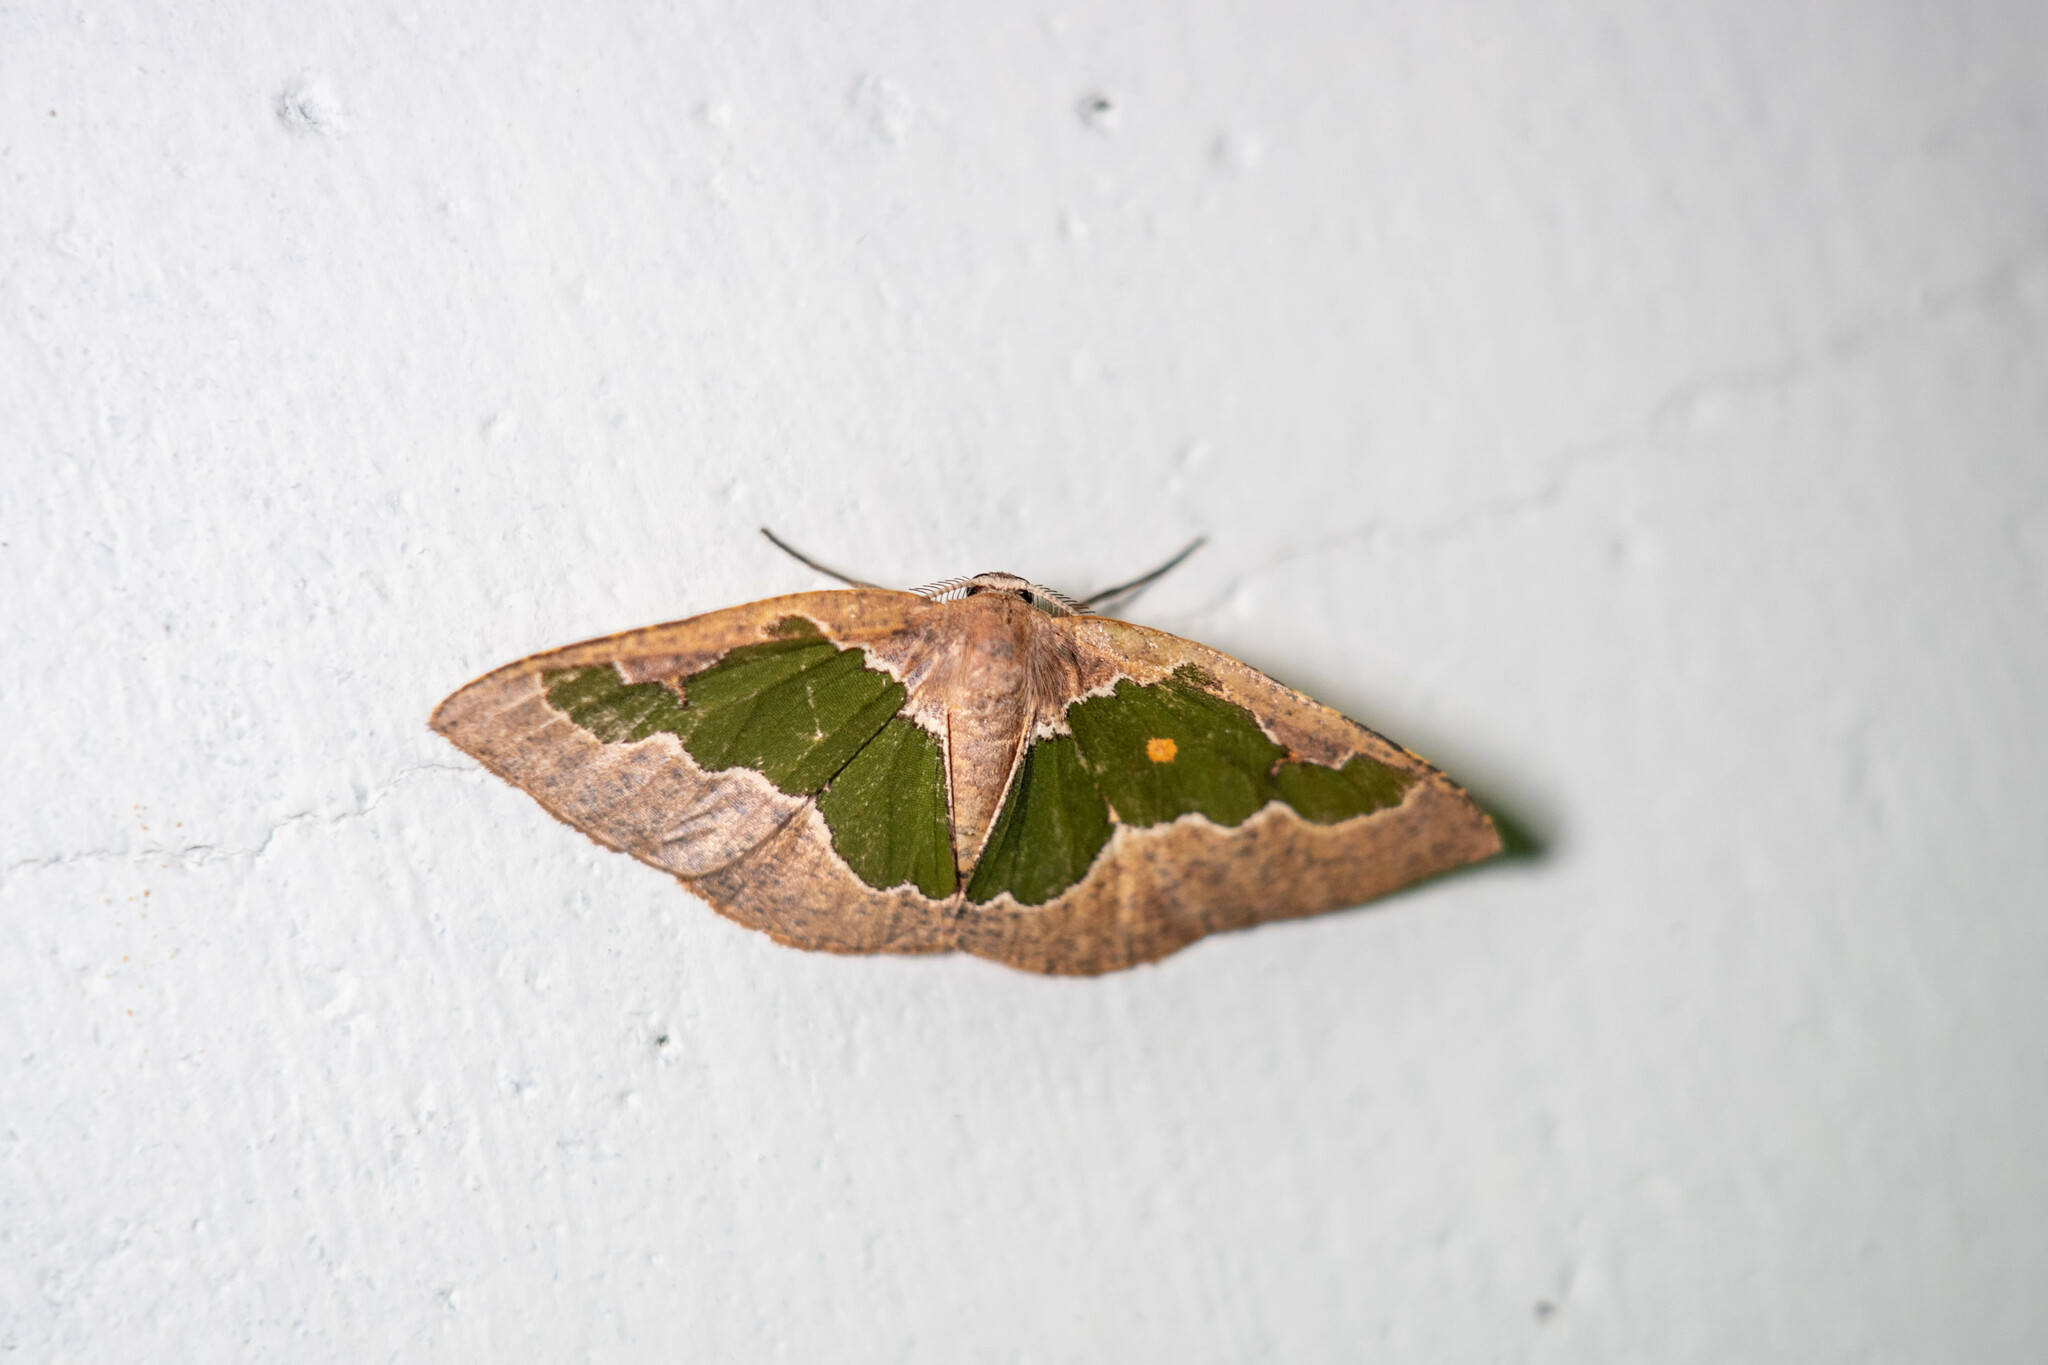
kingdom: Animalia
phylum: Arthropoda
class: Insecta
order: Lepidoptera
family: Geometridae
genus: Celenna
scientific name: Celenna festivaria
